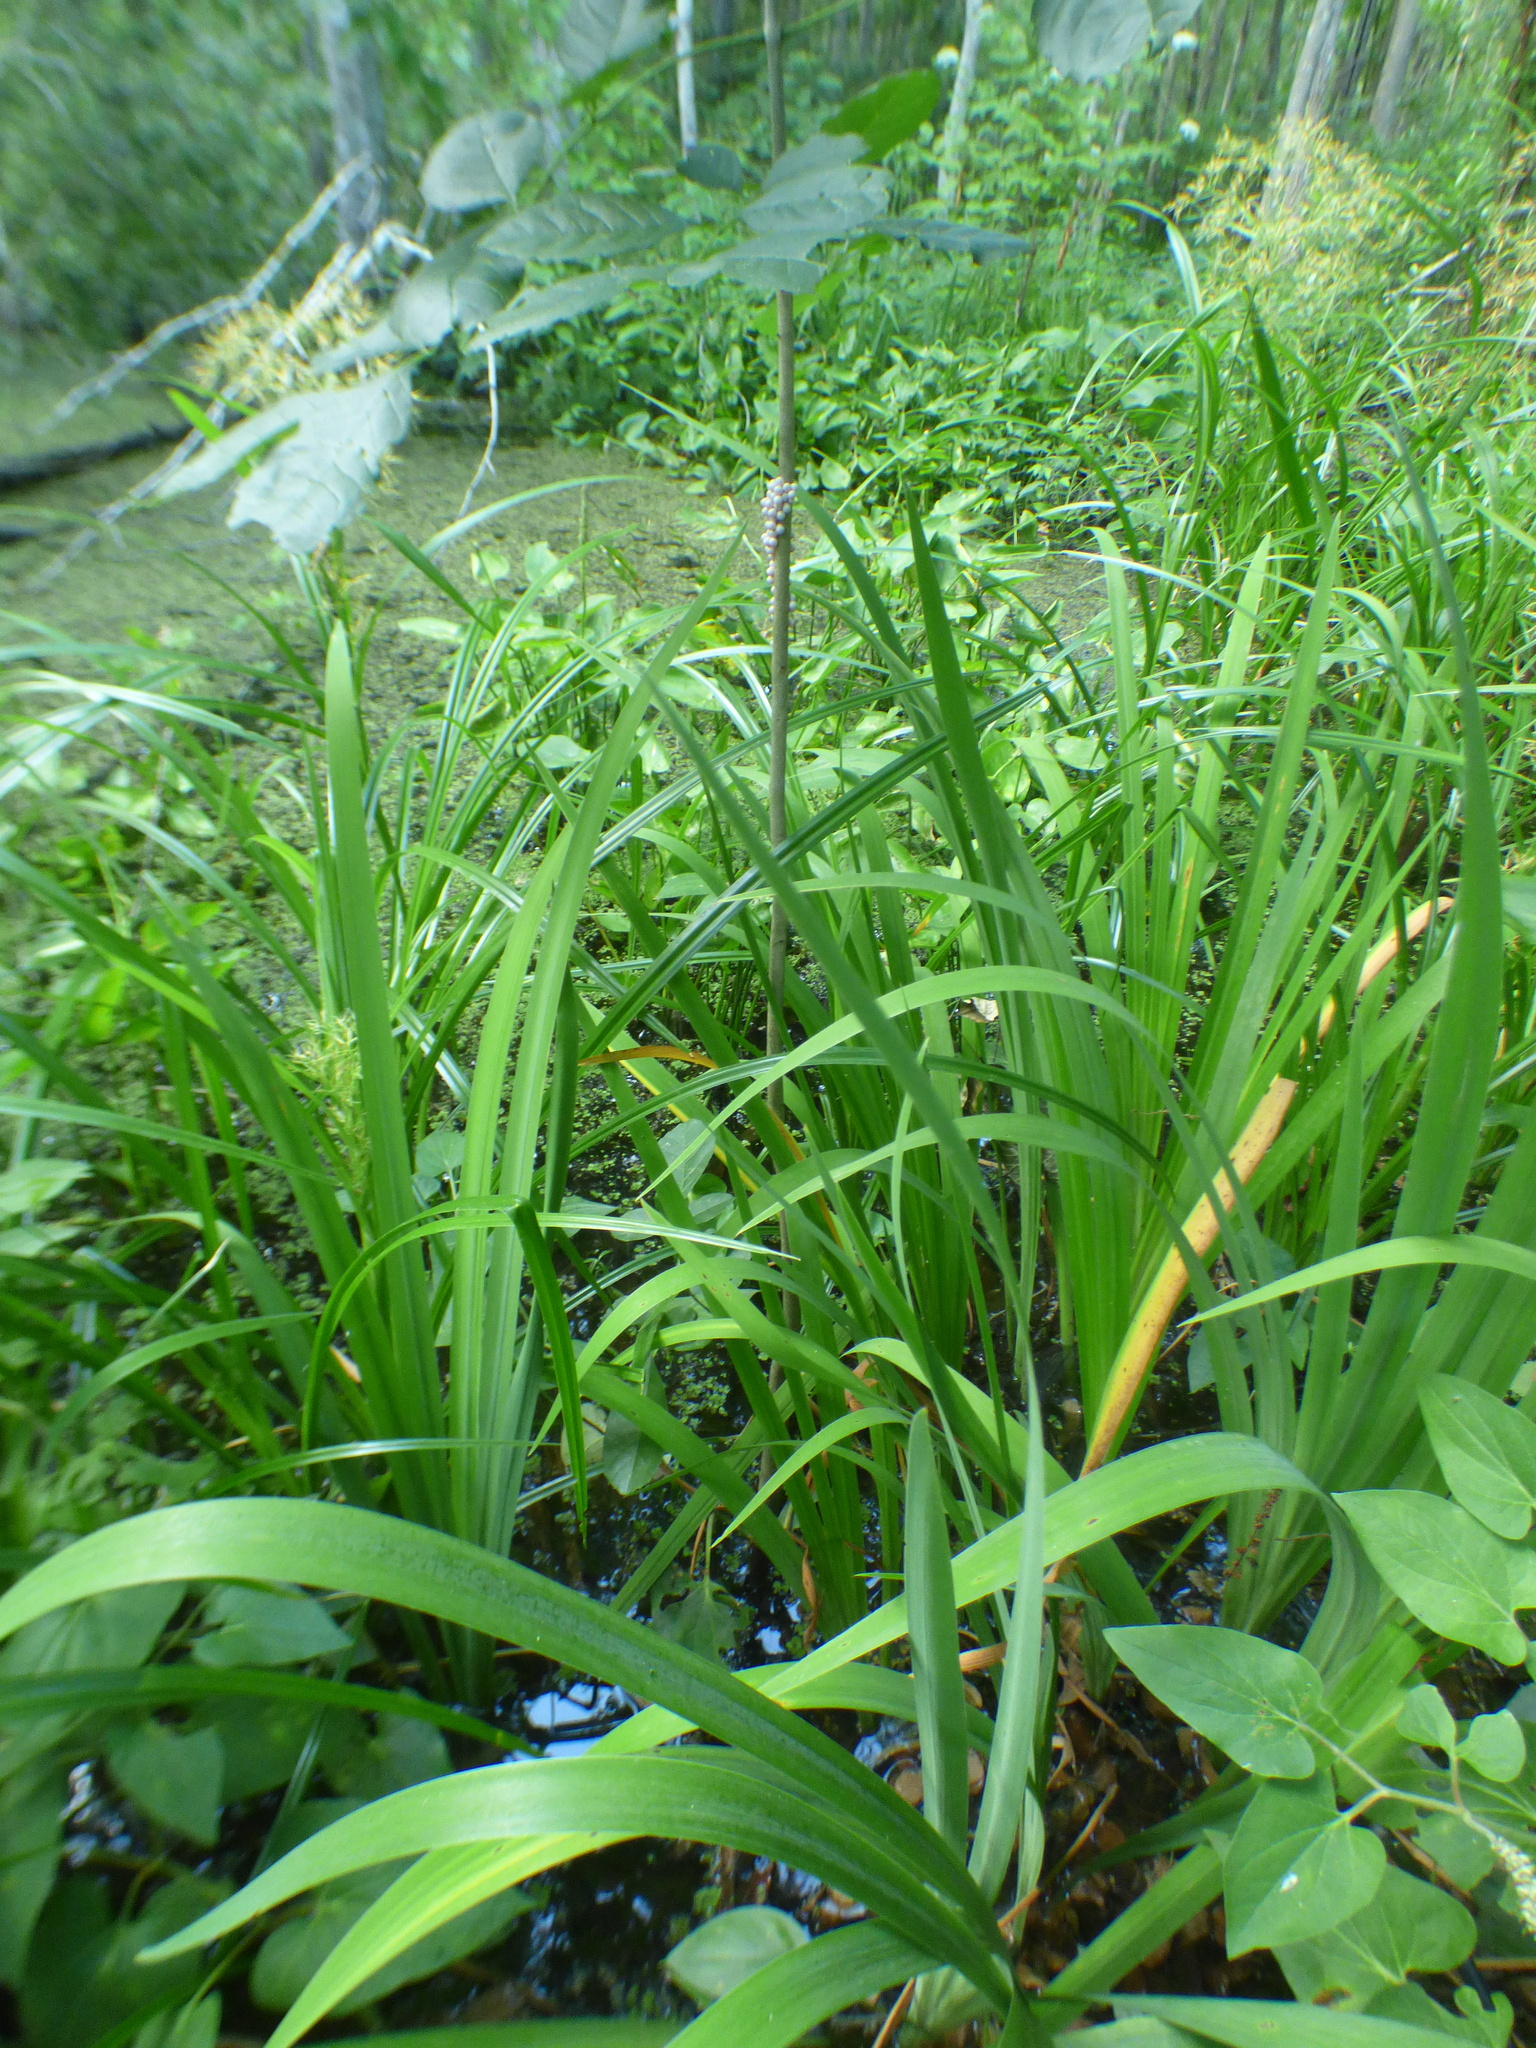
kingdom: Animalia
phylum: Mollusca
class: Gastropoda
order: Architaenioglossa
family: Ampullariidae
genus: Pomacea
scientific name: Pomacea paludosa
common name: Florida applesnail
